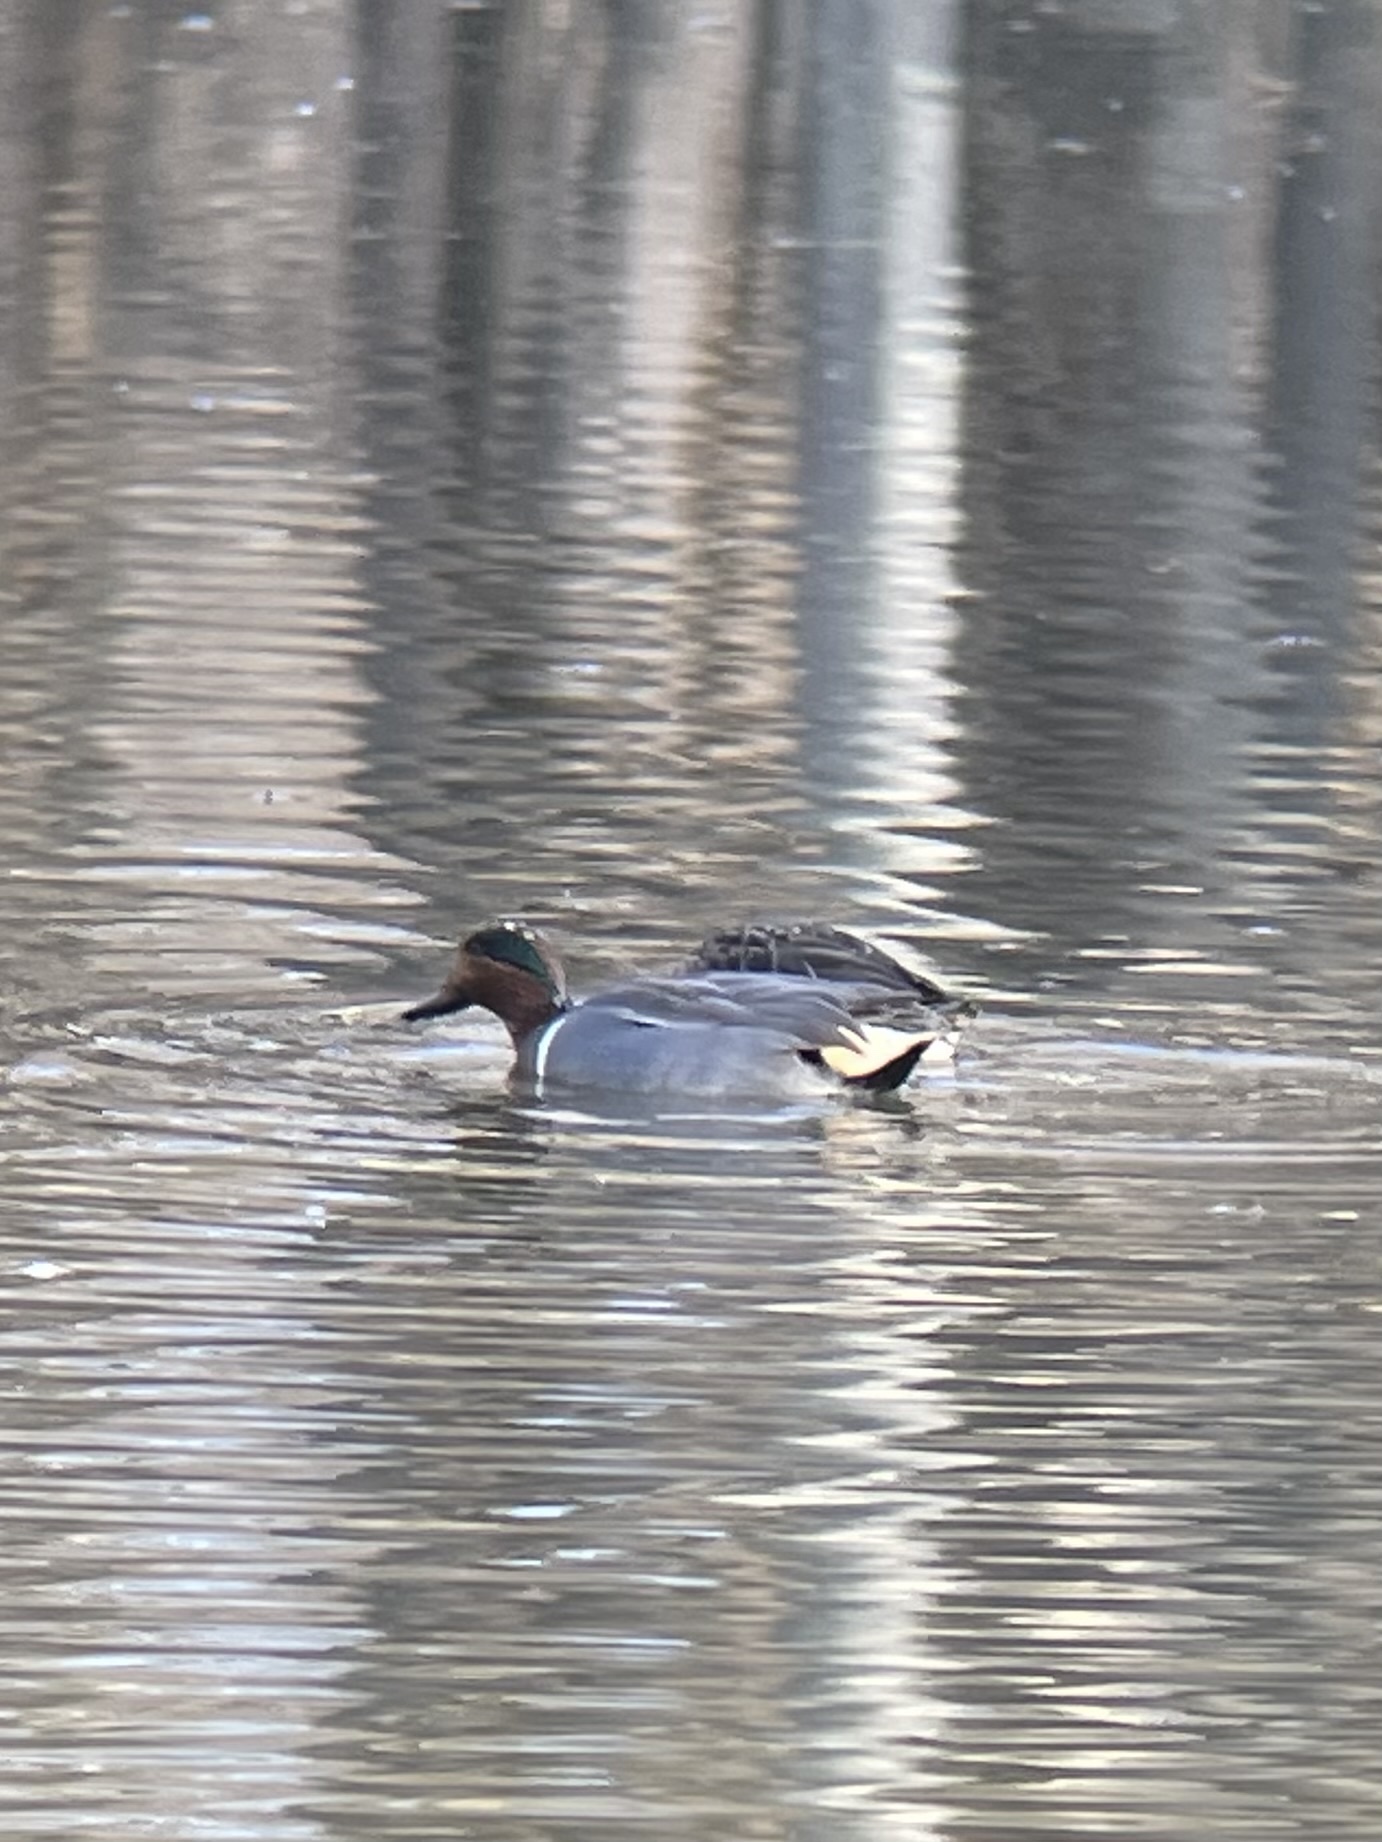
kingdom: Animalia
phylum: Chordata
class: Aves
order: Anseriformes
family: Anatidae
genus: Anas
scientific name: Anas crecca
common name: Eurasian teal
